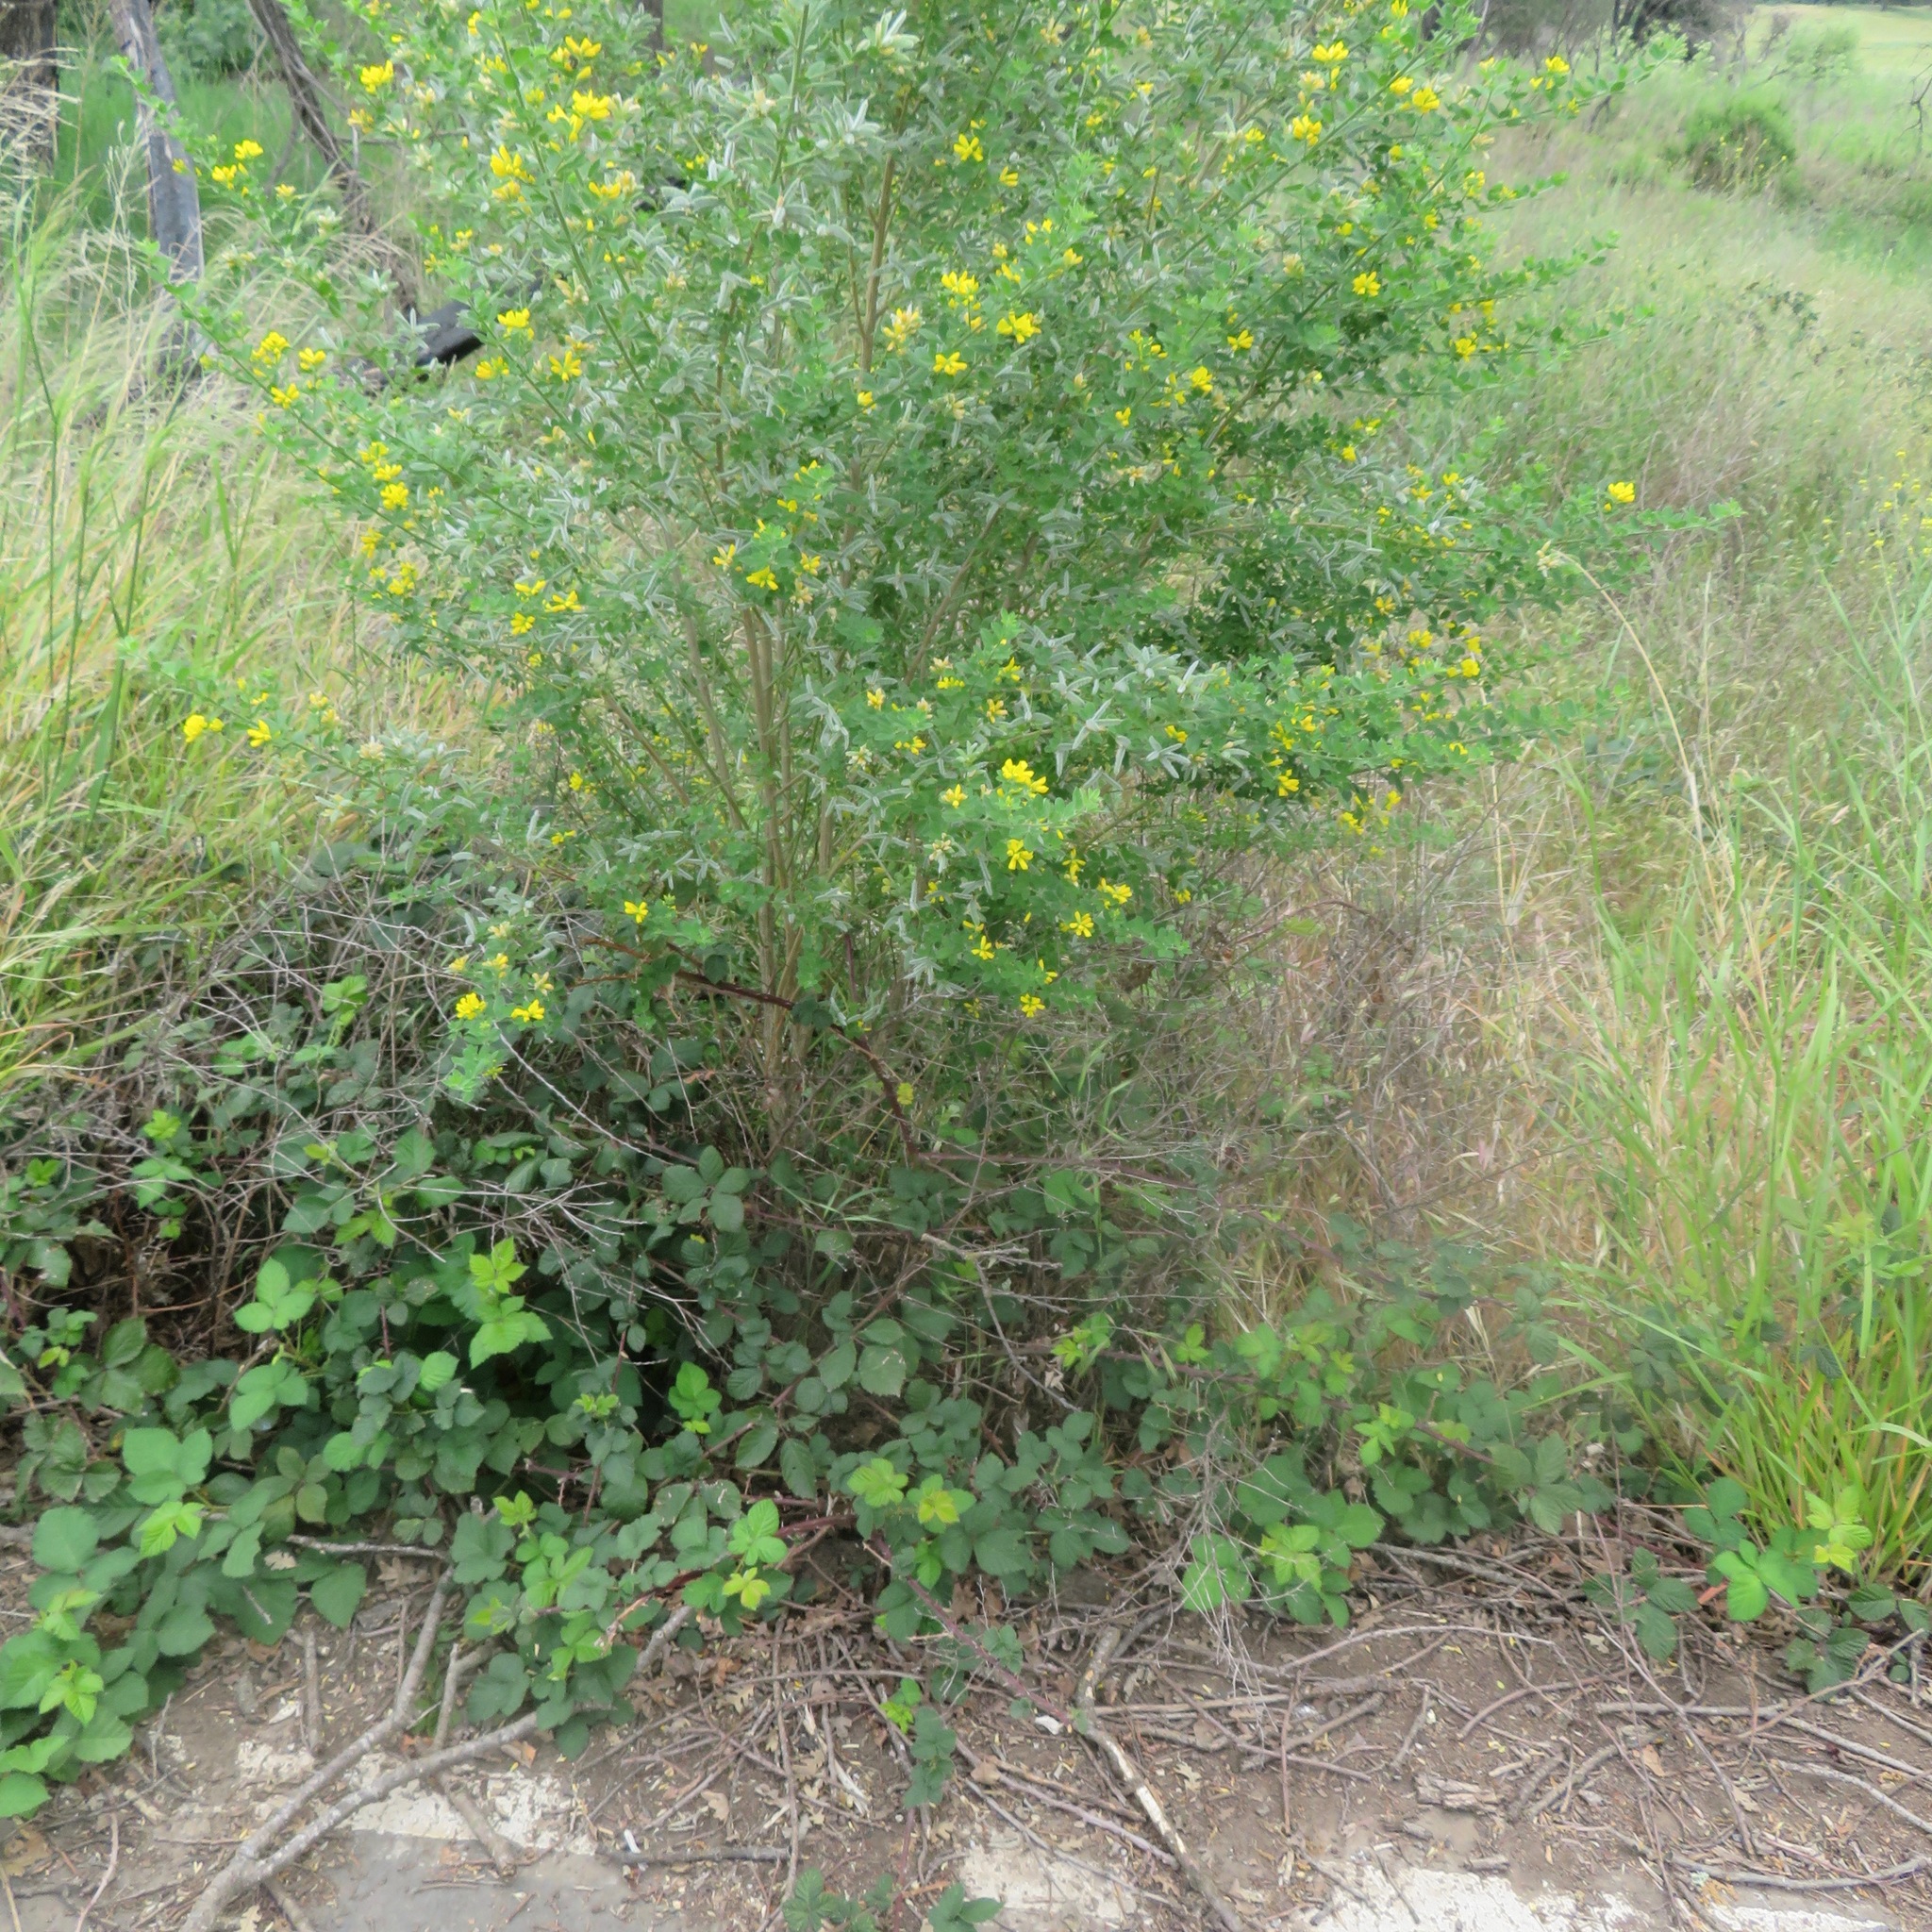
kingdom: Plantae
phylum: Tracheophyta
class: Magnoliopsida
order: Fabales
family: Fabaceae
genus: Genista
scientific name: Genista monspessulana
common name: Montpellier broom
